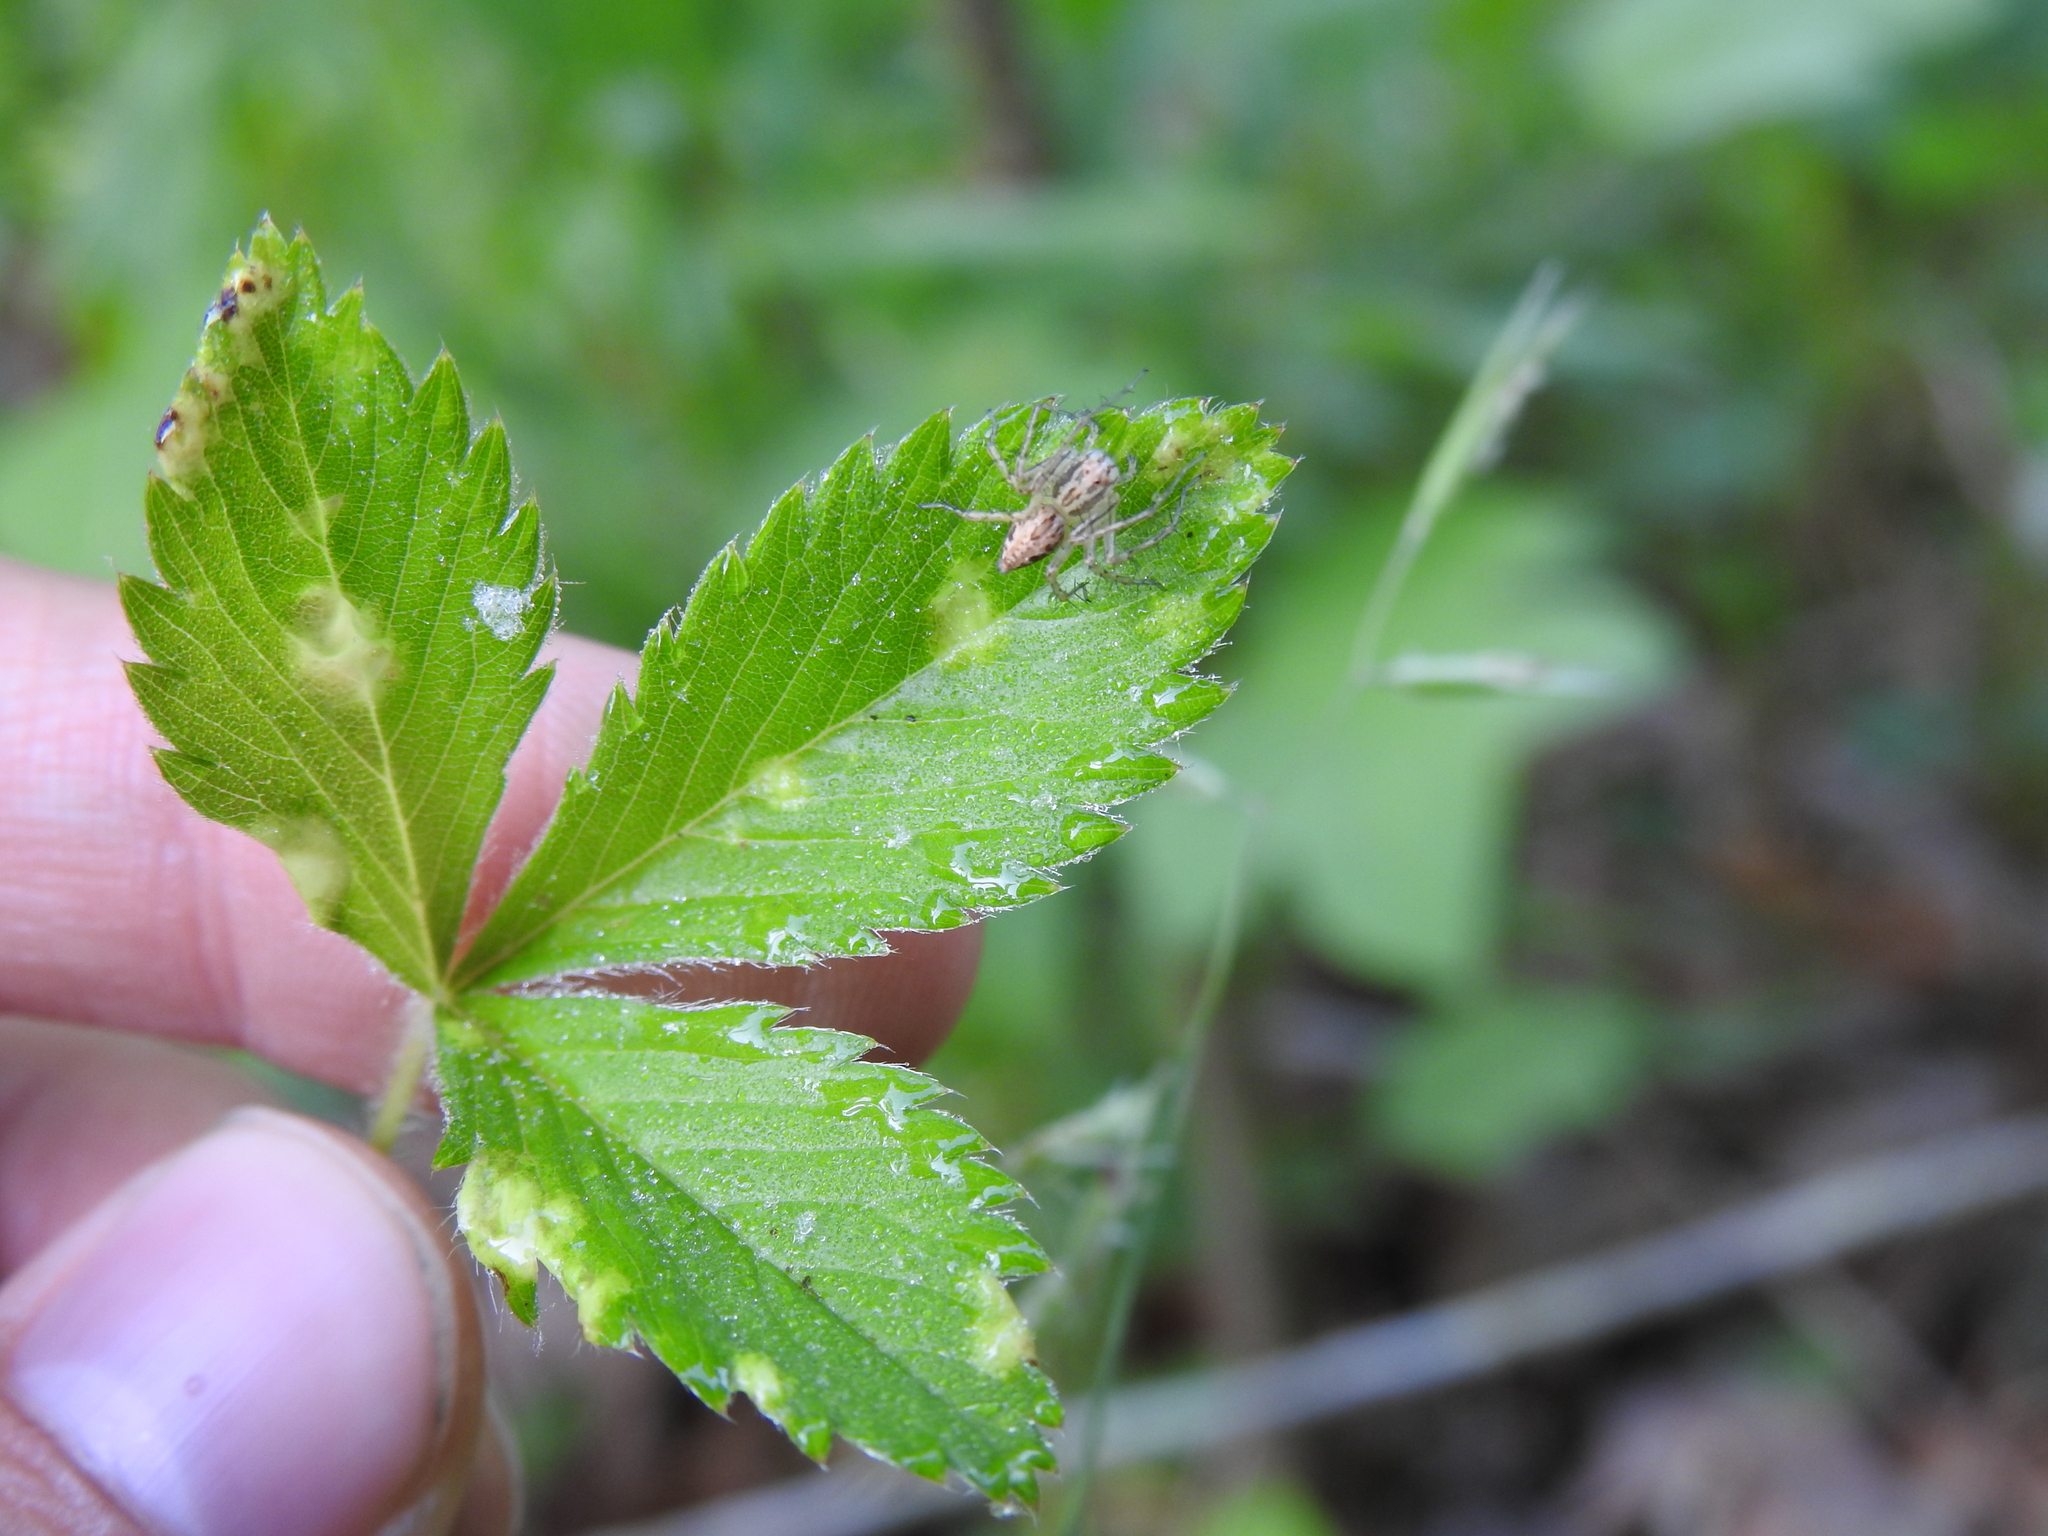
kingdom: Animalia
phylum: Arthropoda
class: Arachnida
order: Araneae
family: Oxyopidae
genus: Oxyopes
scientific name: Oxyopes aglossus
